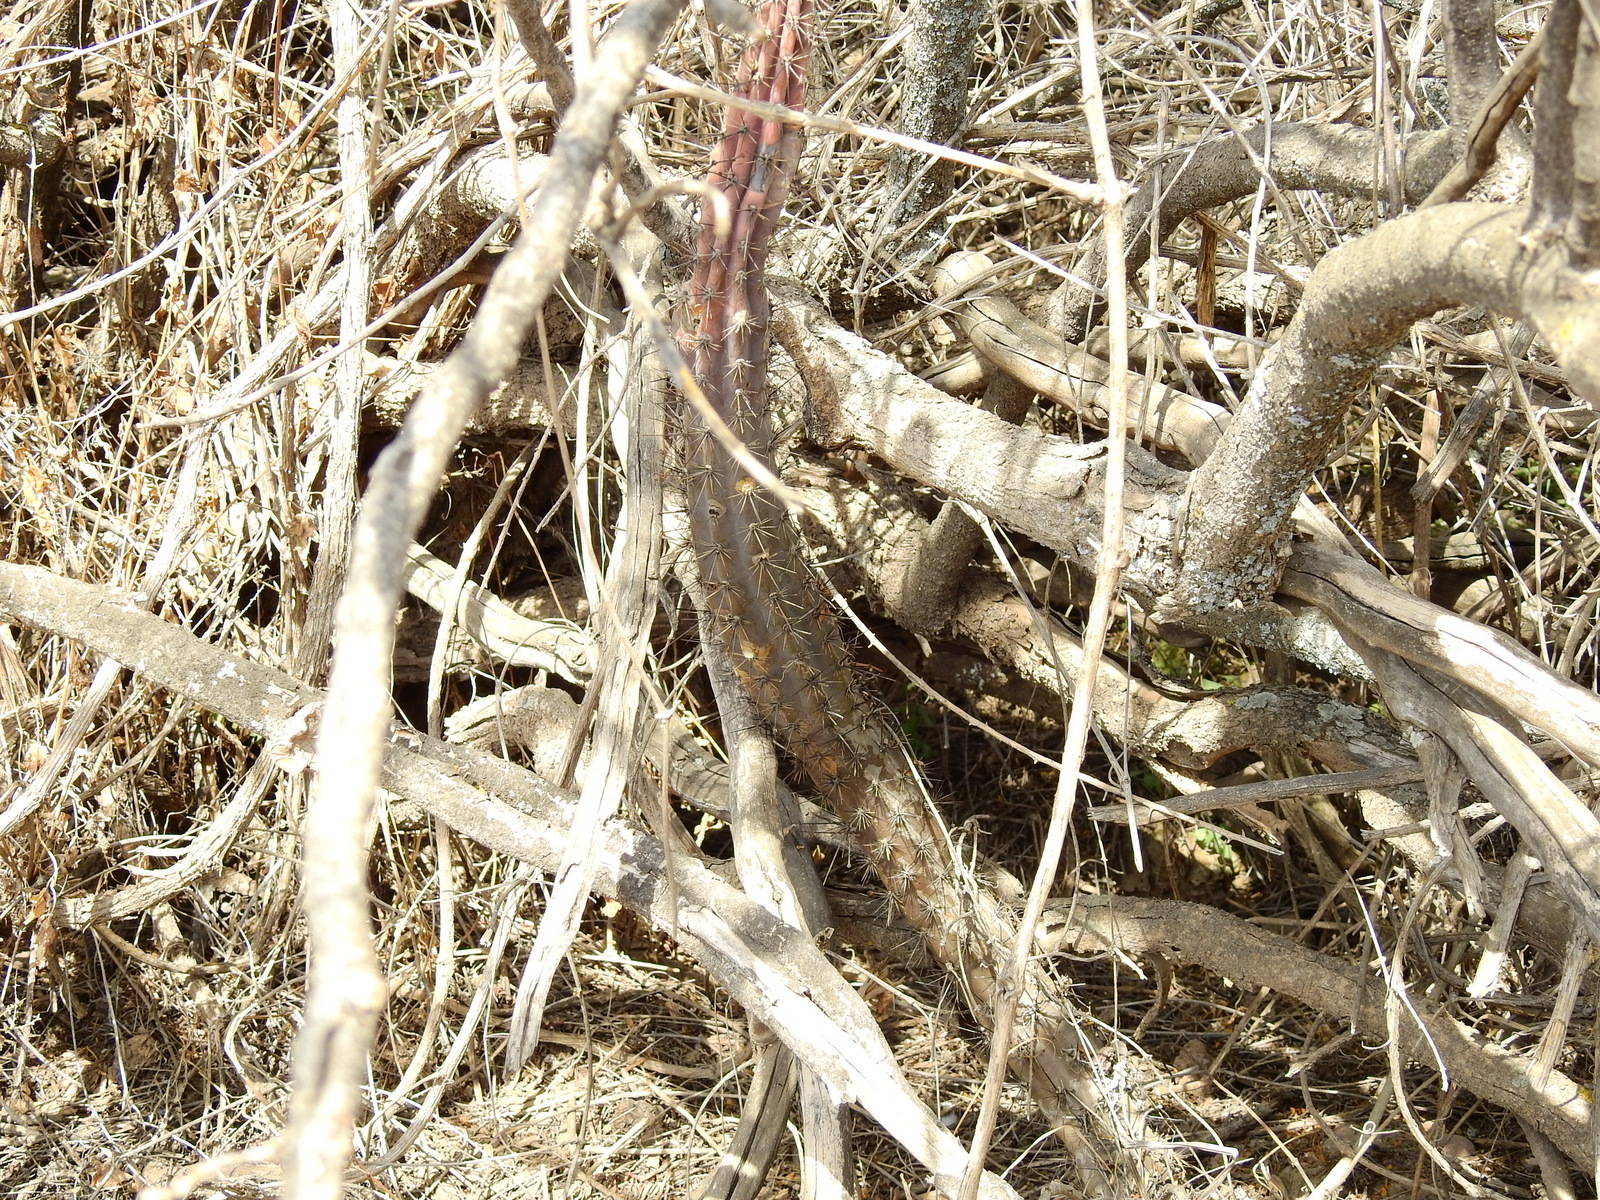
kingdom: Plantae
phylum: Tracheophyta
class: Magnoliopsida
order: Caryophyllales
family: Cactaceae
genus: Cereus
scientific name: Cereus aethiops
